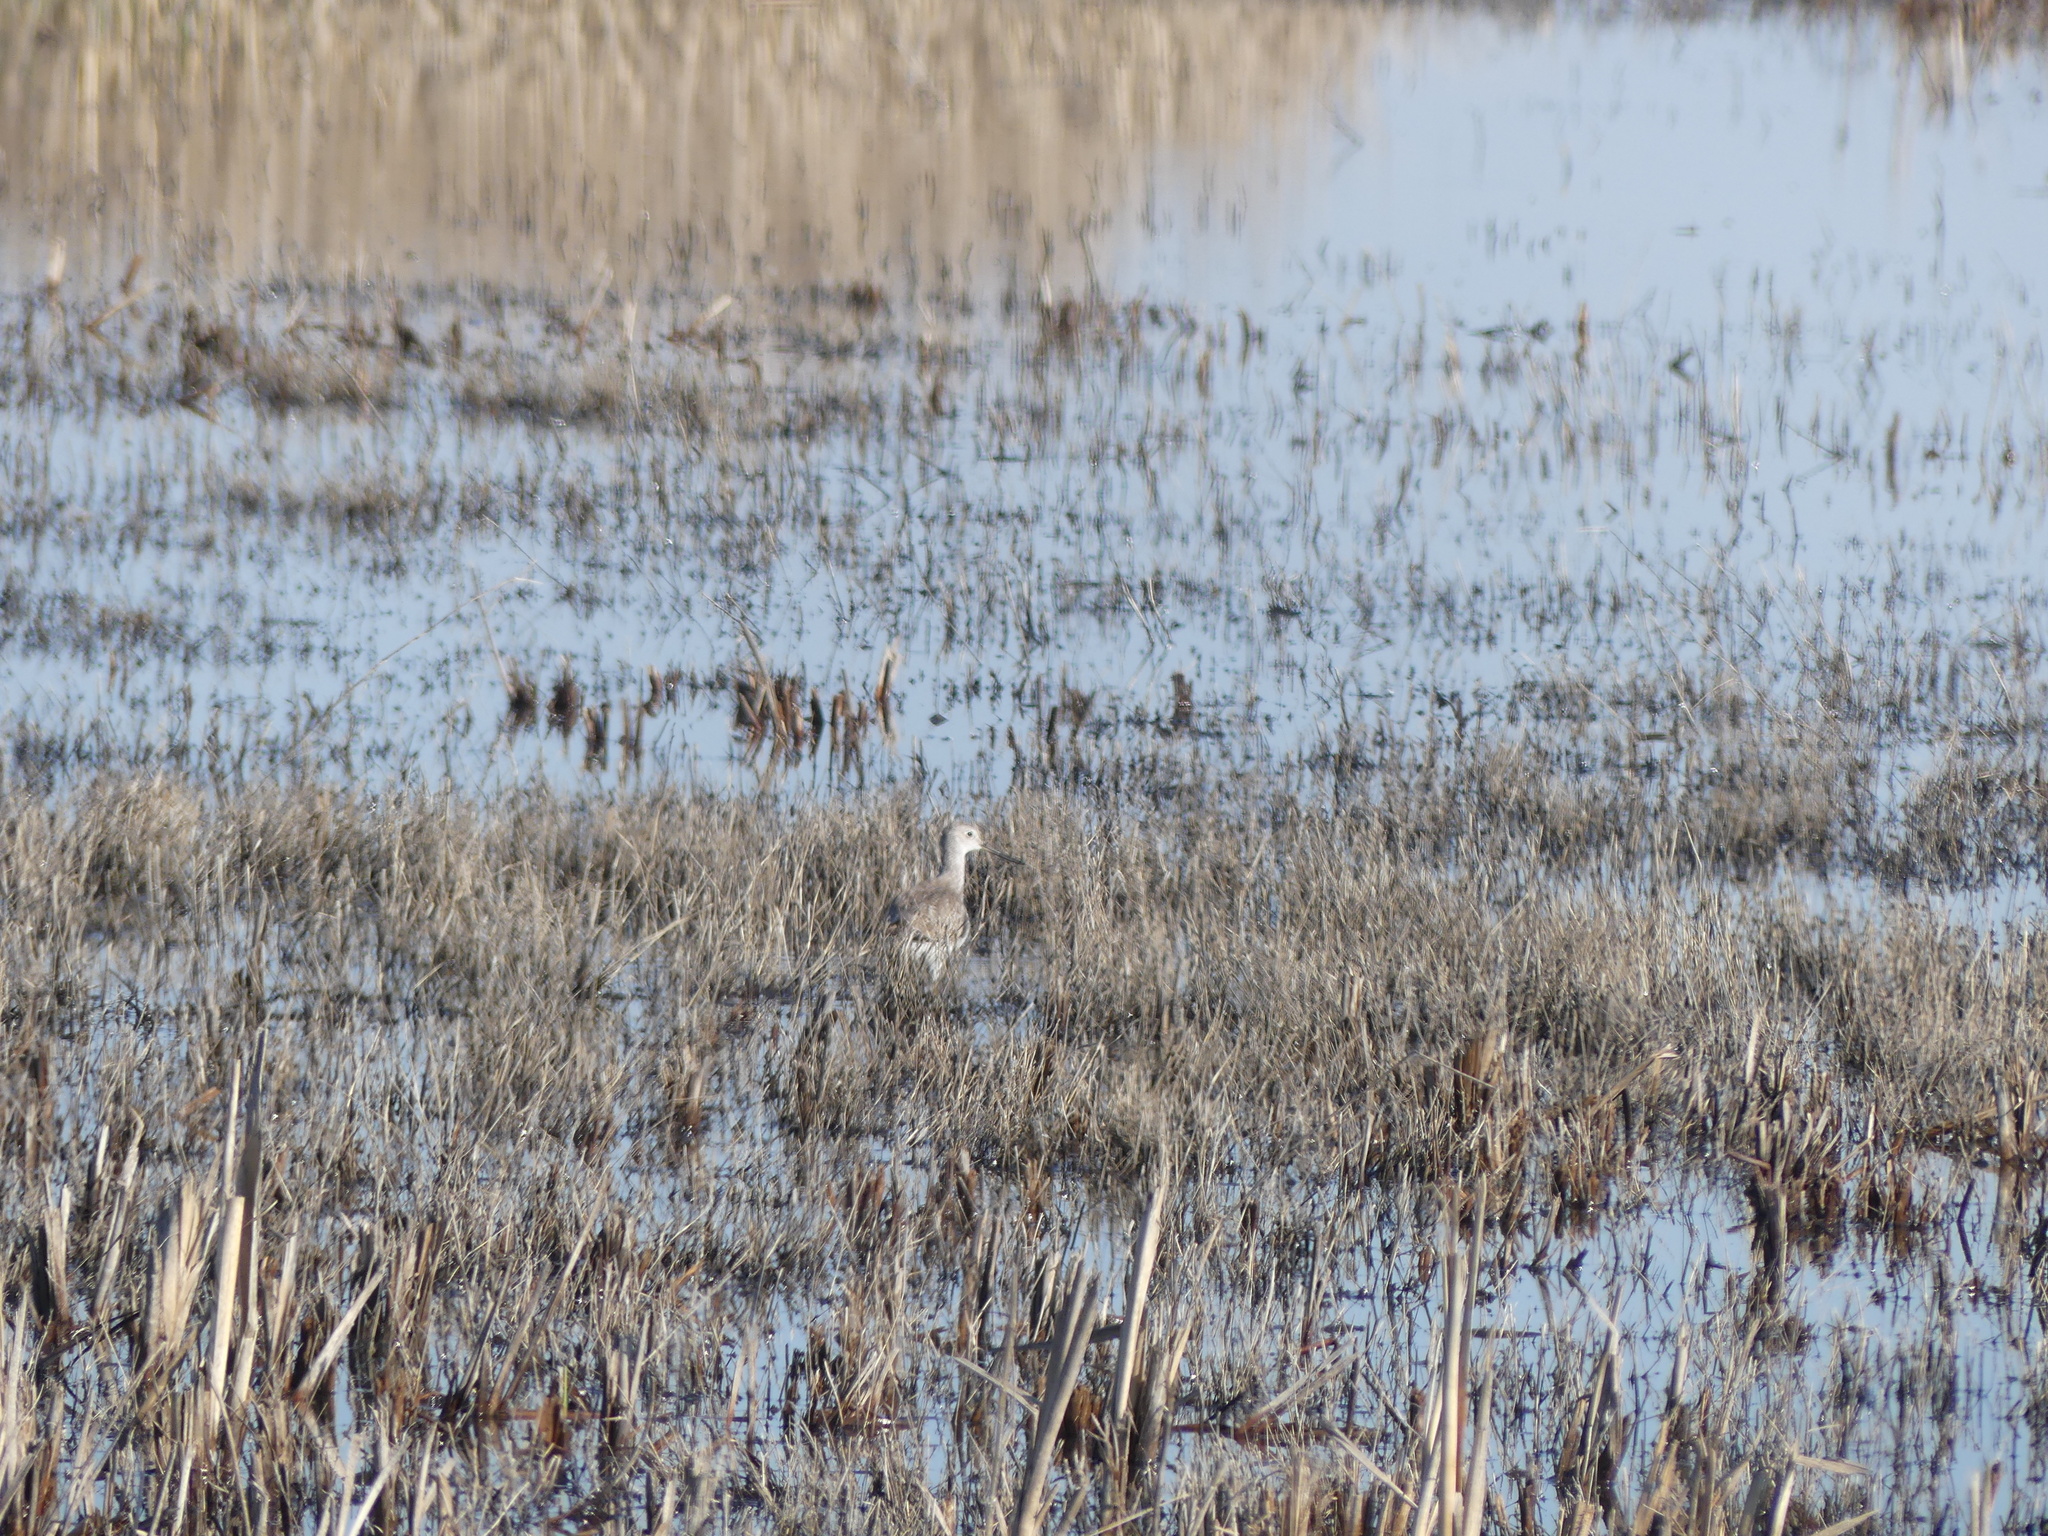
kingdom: Animalia
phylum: Chordata
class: Aves
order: Charadriiformes
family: Scolopacidae
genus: Tringa
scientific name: Tringa melanoleuca
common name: Greater yellowlegs
